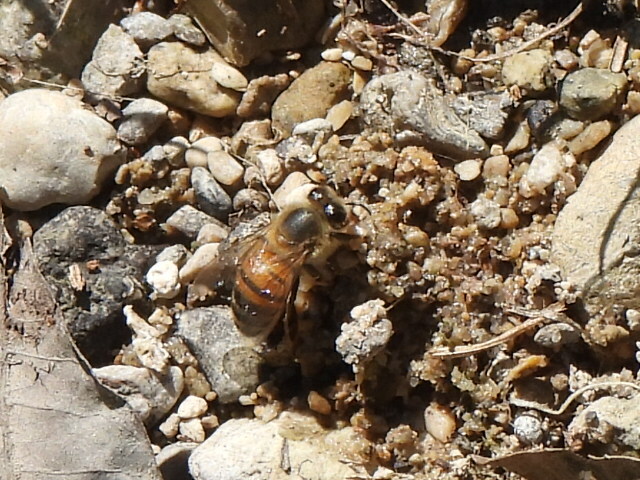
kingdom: Animalia
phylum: Arthropoda
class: Insecta
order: Hymenoptera
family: Apidae
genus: Apis
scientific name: Apis mellifera
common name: Honey bee
